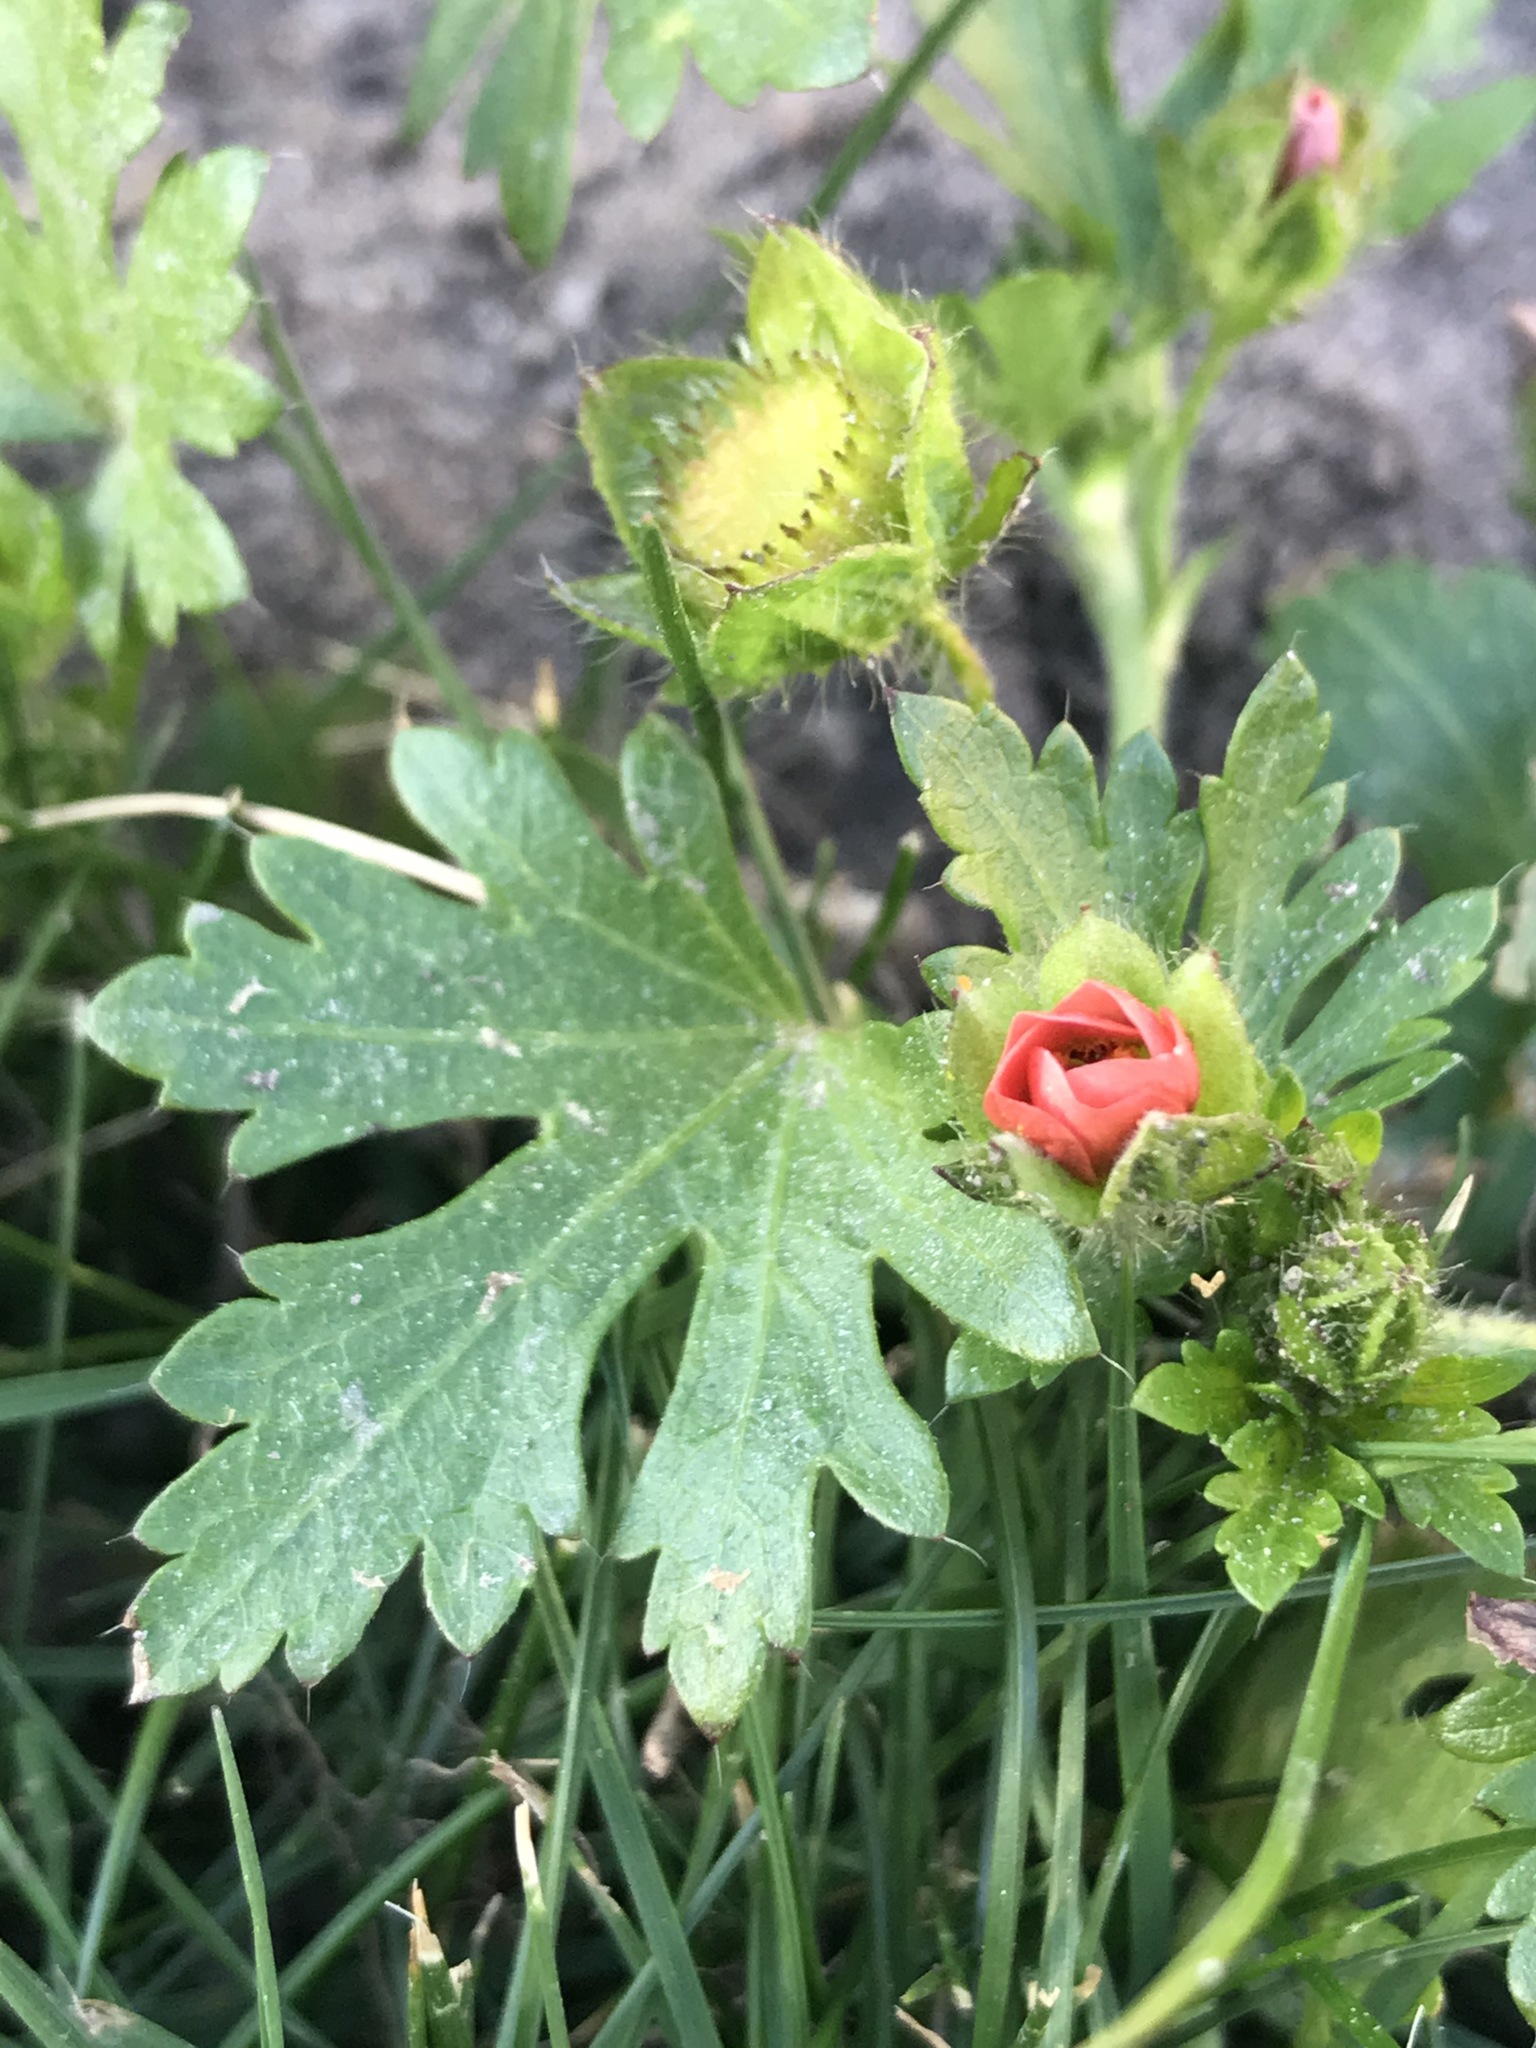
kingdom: Plantae
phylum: Tracheophyta
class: Magnoliopsida
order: Malvales
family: Malvaceae
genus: Modiola
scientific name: Modiola caroliniana
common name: Carolina bristlemallow
